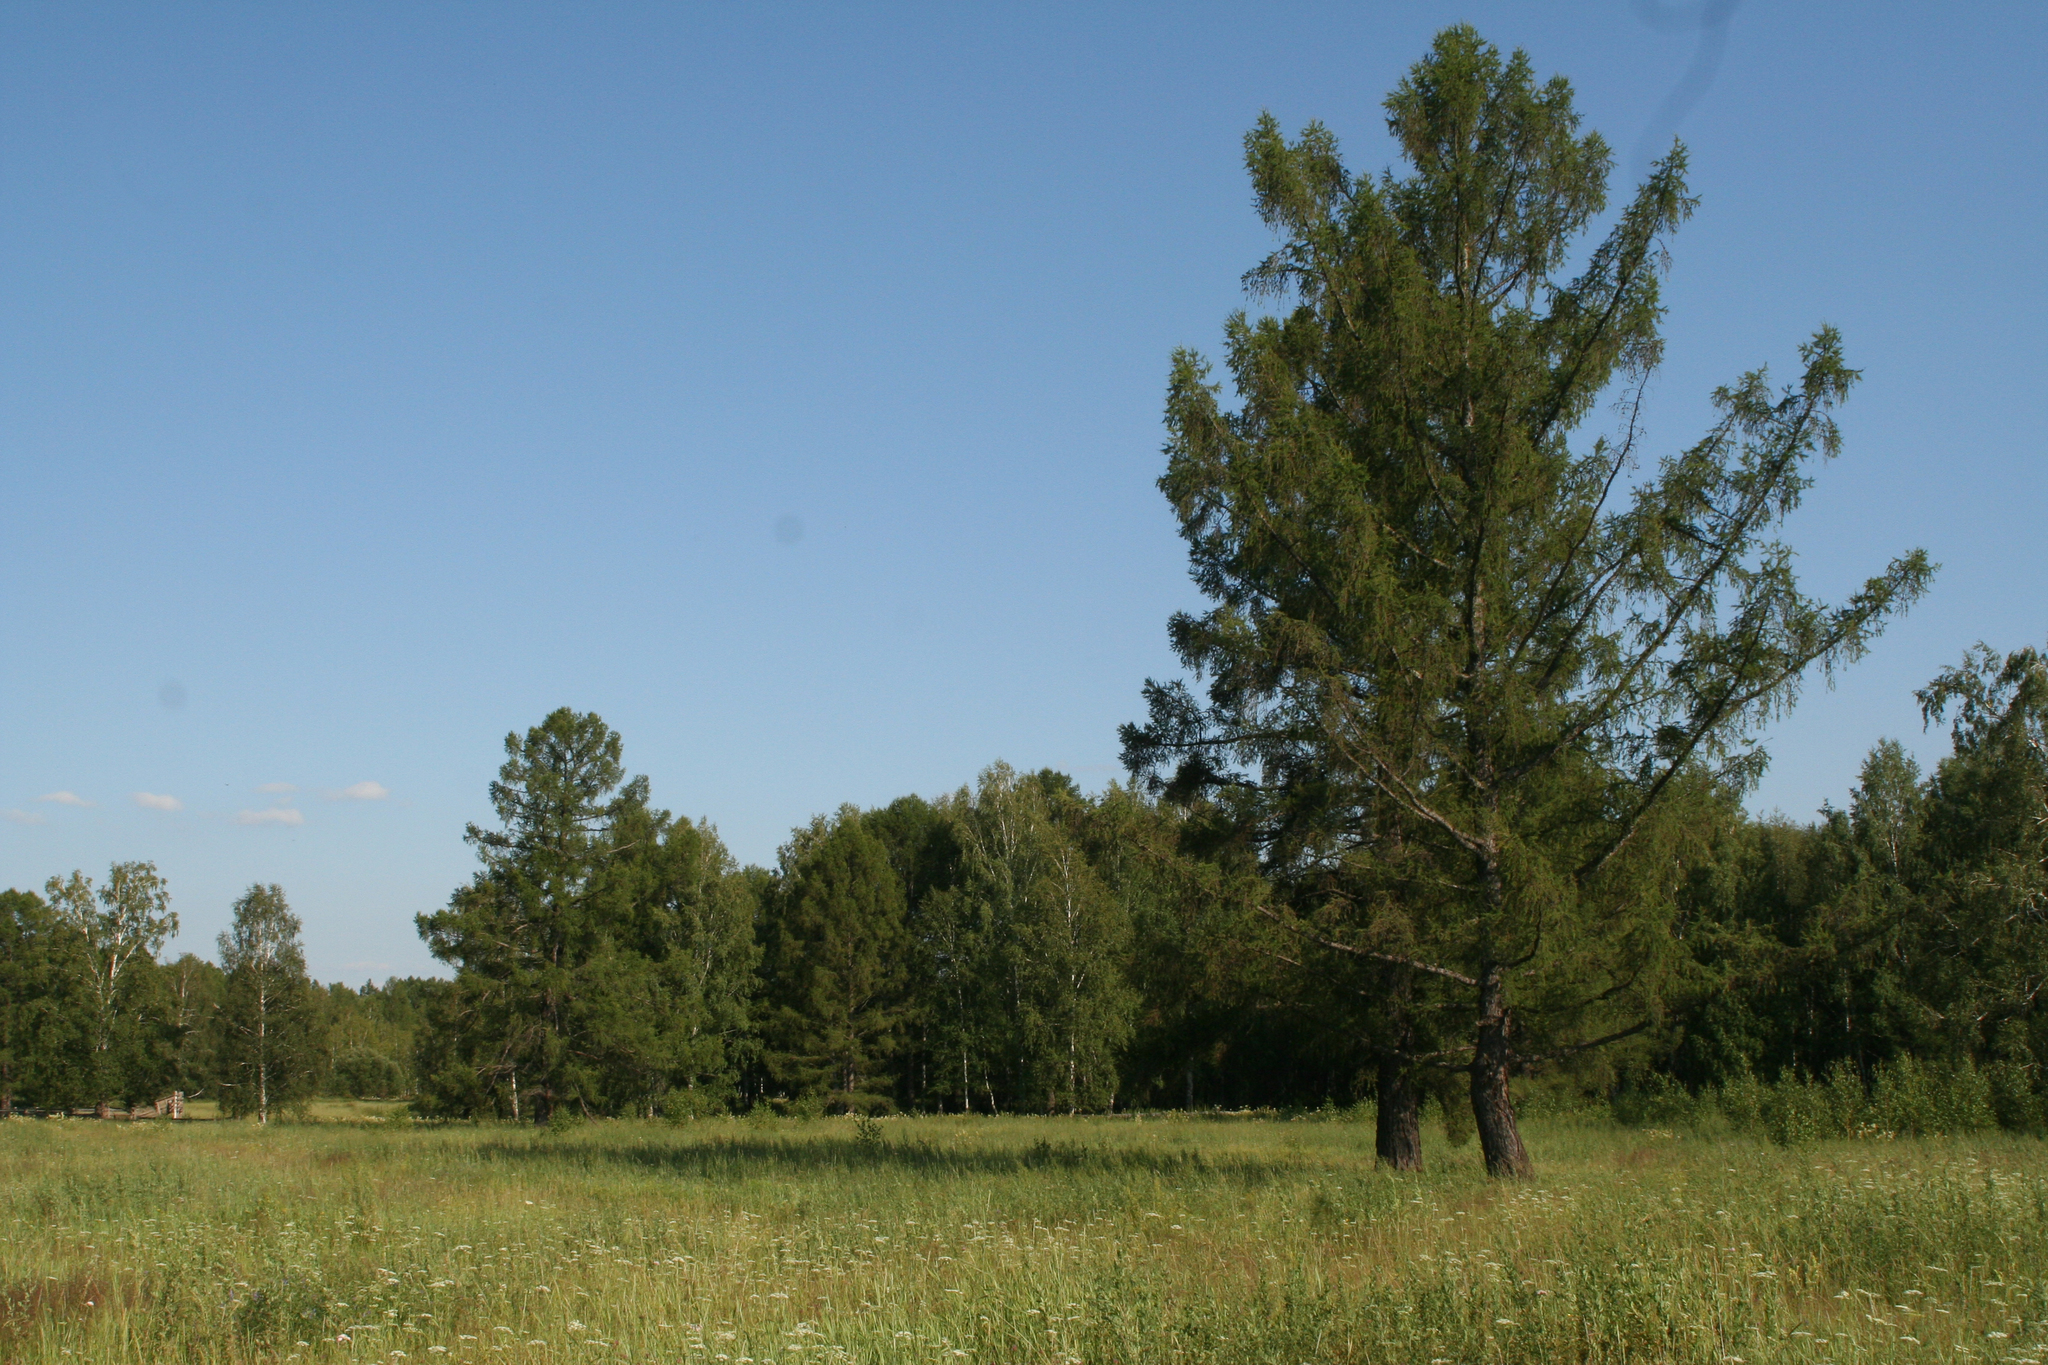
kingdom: Plantae
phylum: Tracheophyta
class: Pinopsida
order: Pinales
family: Pinaceae
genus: Larix
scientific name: Larix sibirica
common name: Siberian larch
